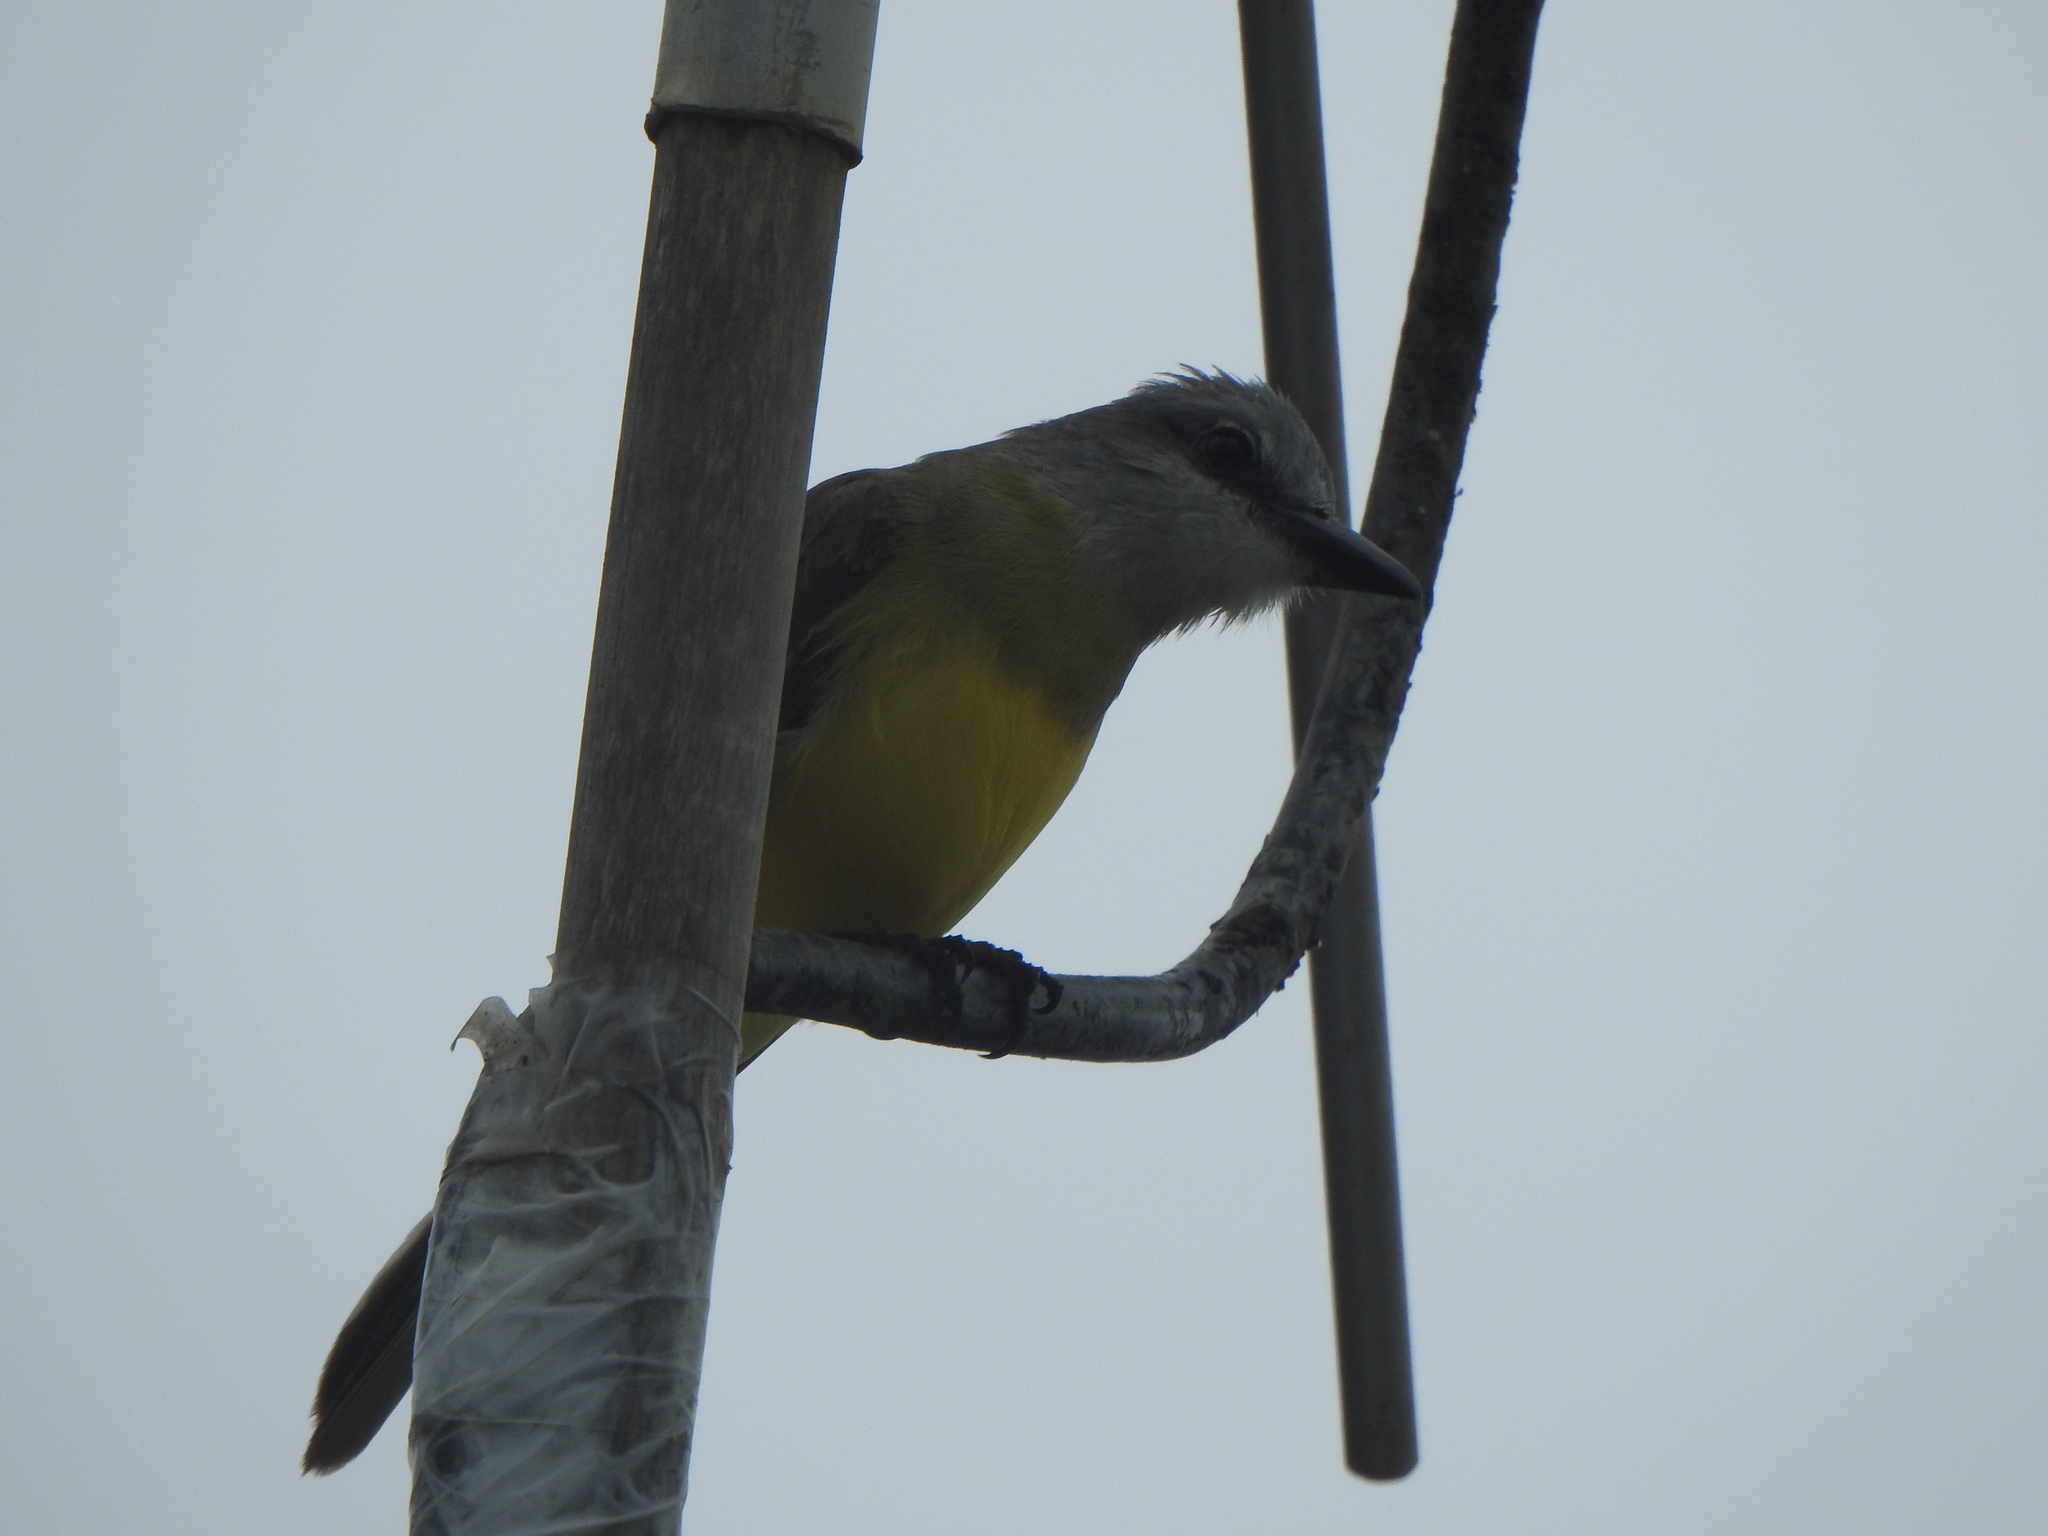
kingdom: Animalia
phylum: Chordata
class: Aves
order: Passeriformes
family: Tyrannidae
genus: Tyrannus
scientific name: Tyrannus melancholicus
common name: Tropical kingbird
